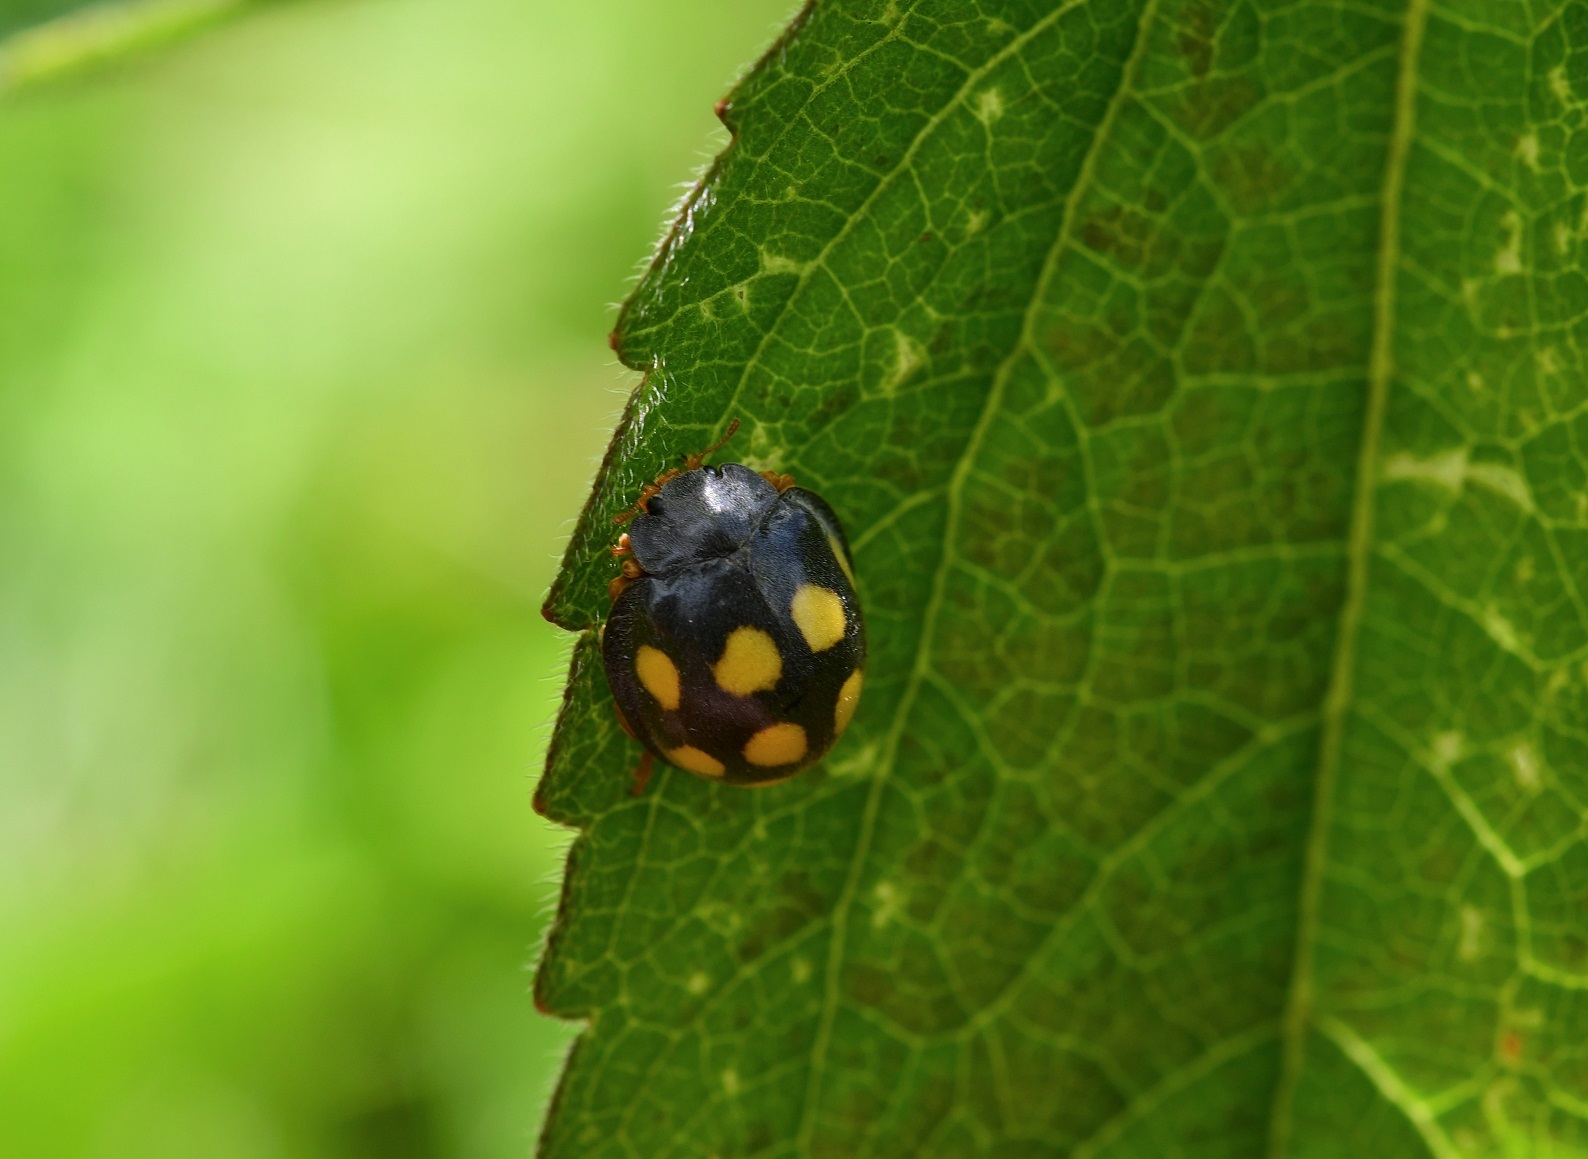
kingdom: Animalia
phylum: Arthropoda
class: Insecta
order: Coleoptera
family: Coccinellidae
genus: Epilachna
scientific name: Epilachna
